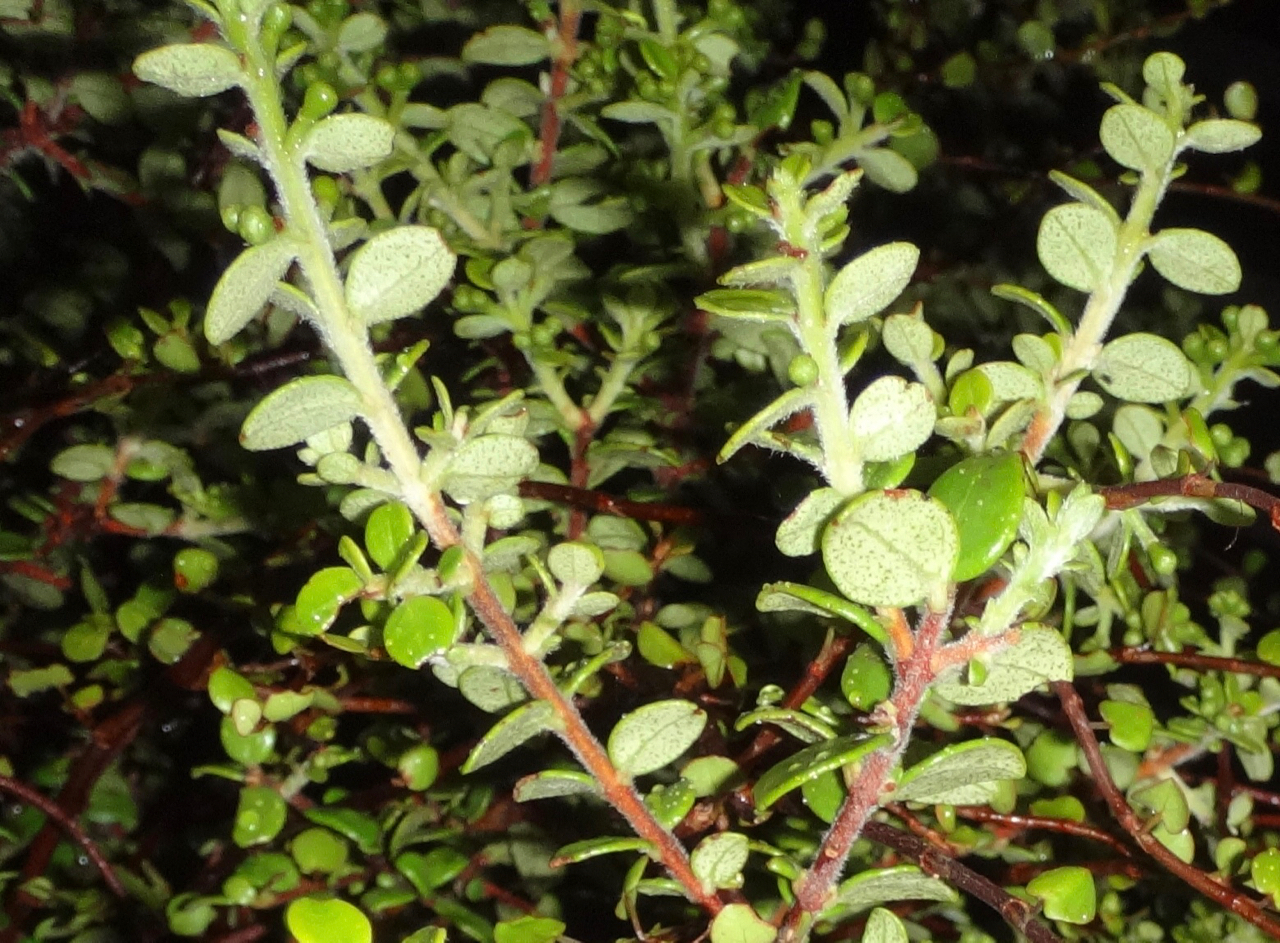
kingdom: Plantae
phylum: Tracheophyta
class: Magnoliopsida
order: Myrtales
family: Myrtaceae
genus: Metrosideros
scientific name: Metrosideros perforata
